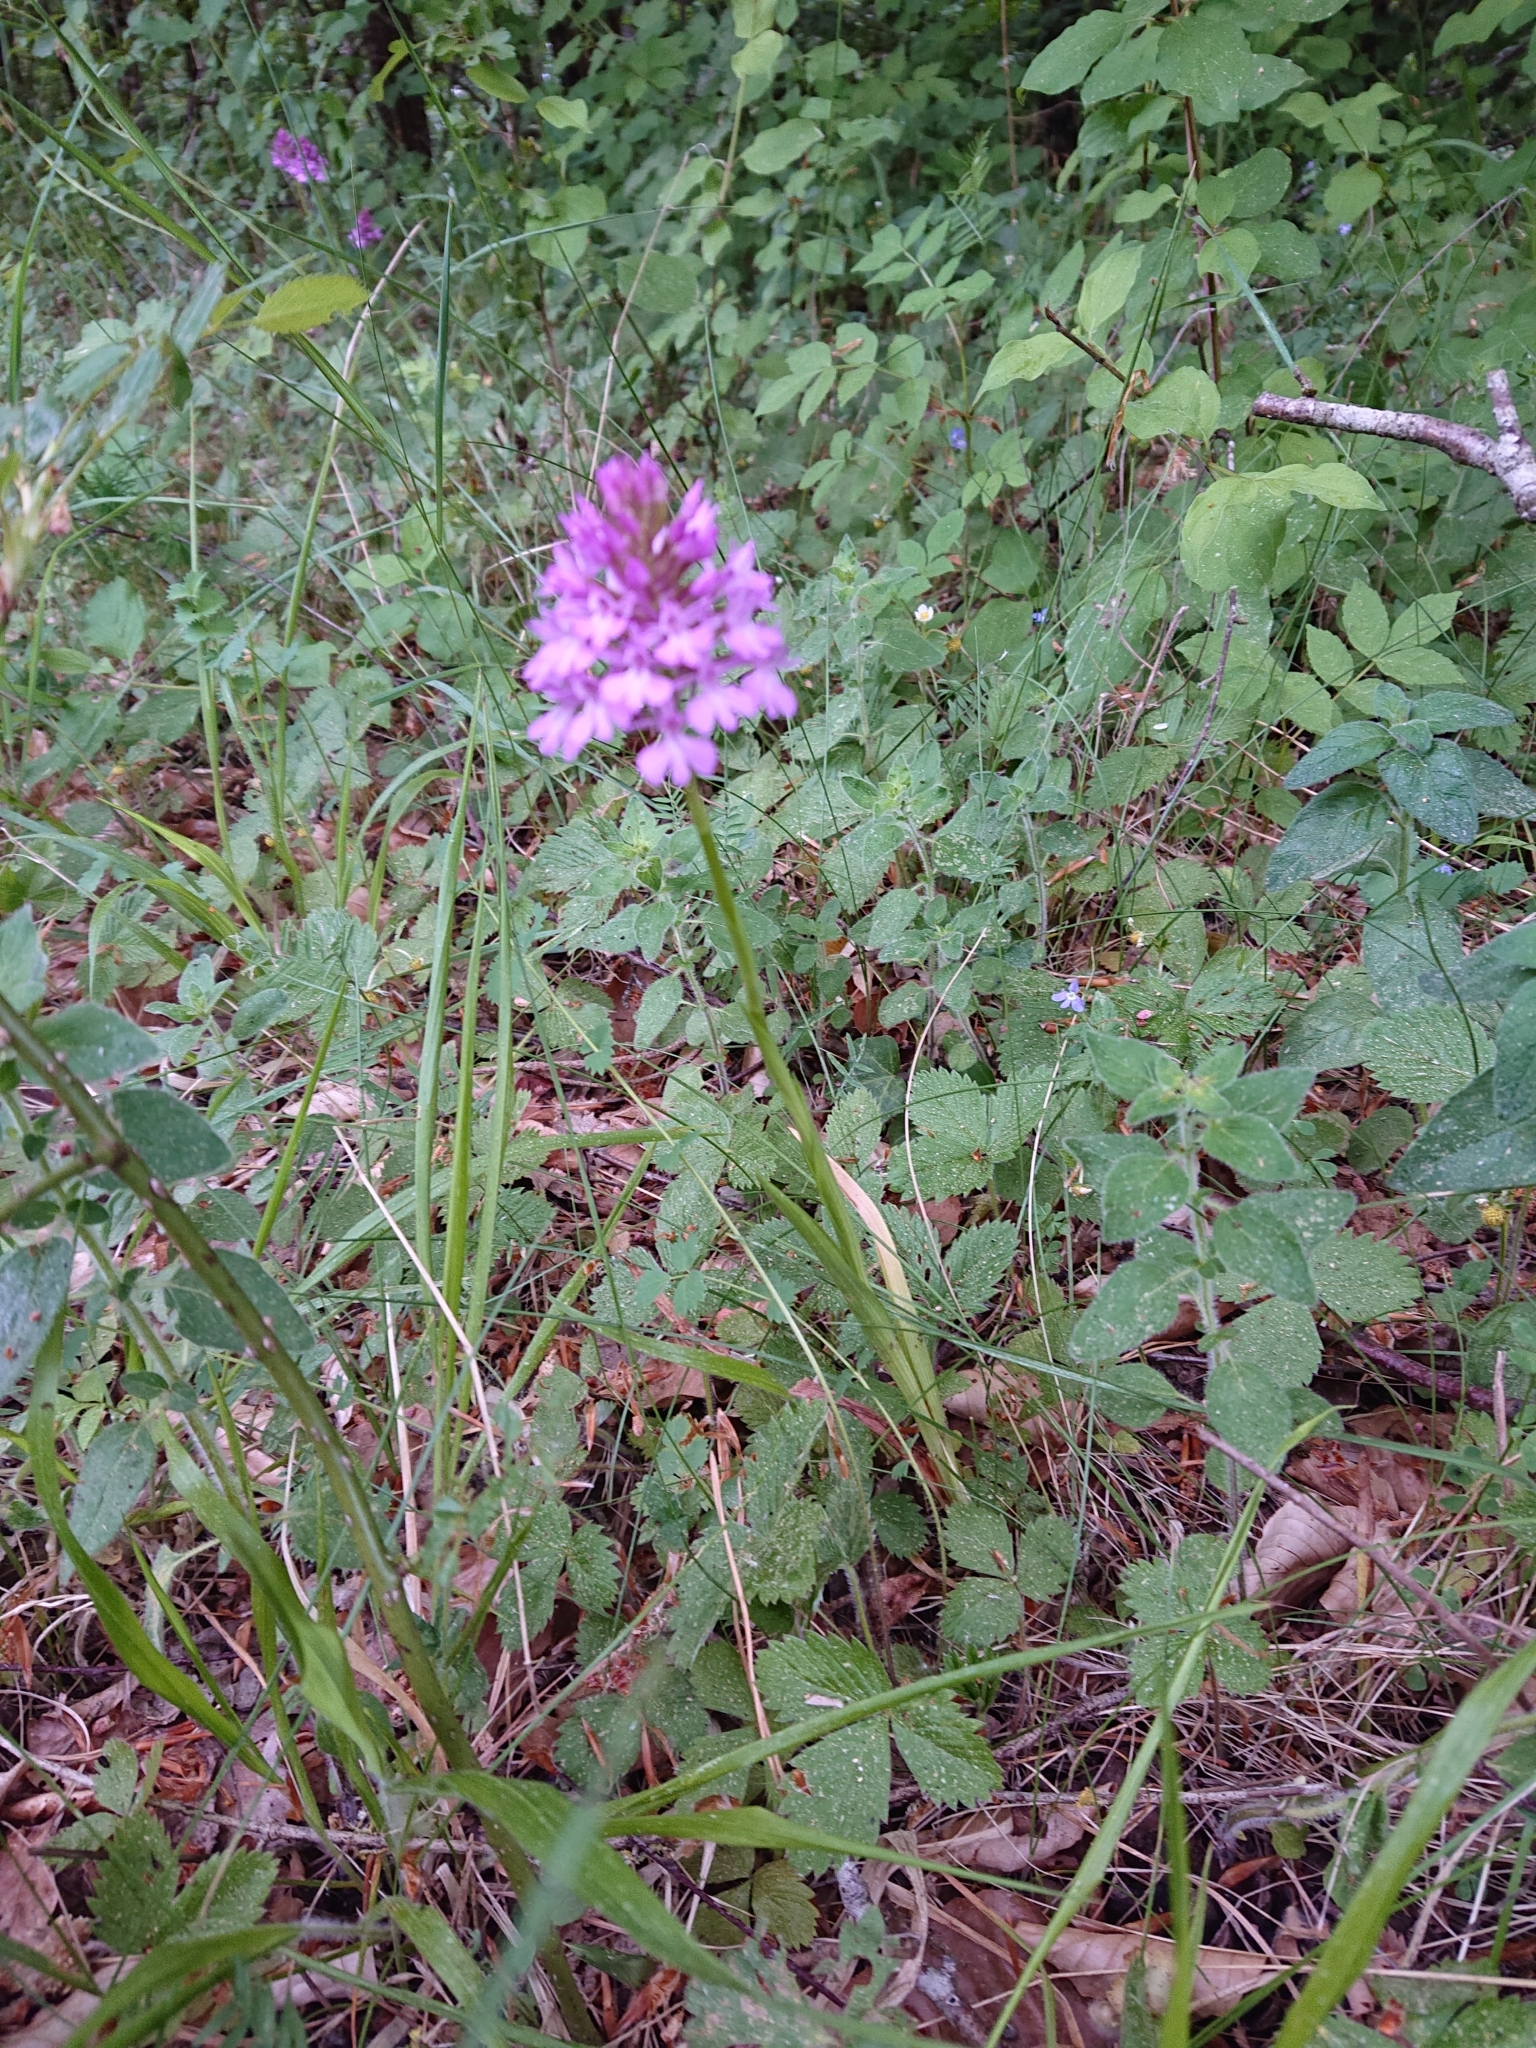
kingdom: Plantae
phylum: Tracheophyta
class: Liliopsida
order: Asparagales
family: Orchidaceae
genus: Anacamptis
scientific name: Anacamptis pyramidalis
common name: Pyramidal orchid
